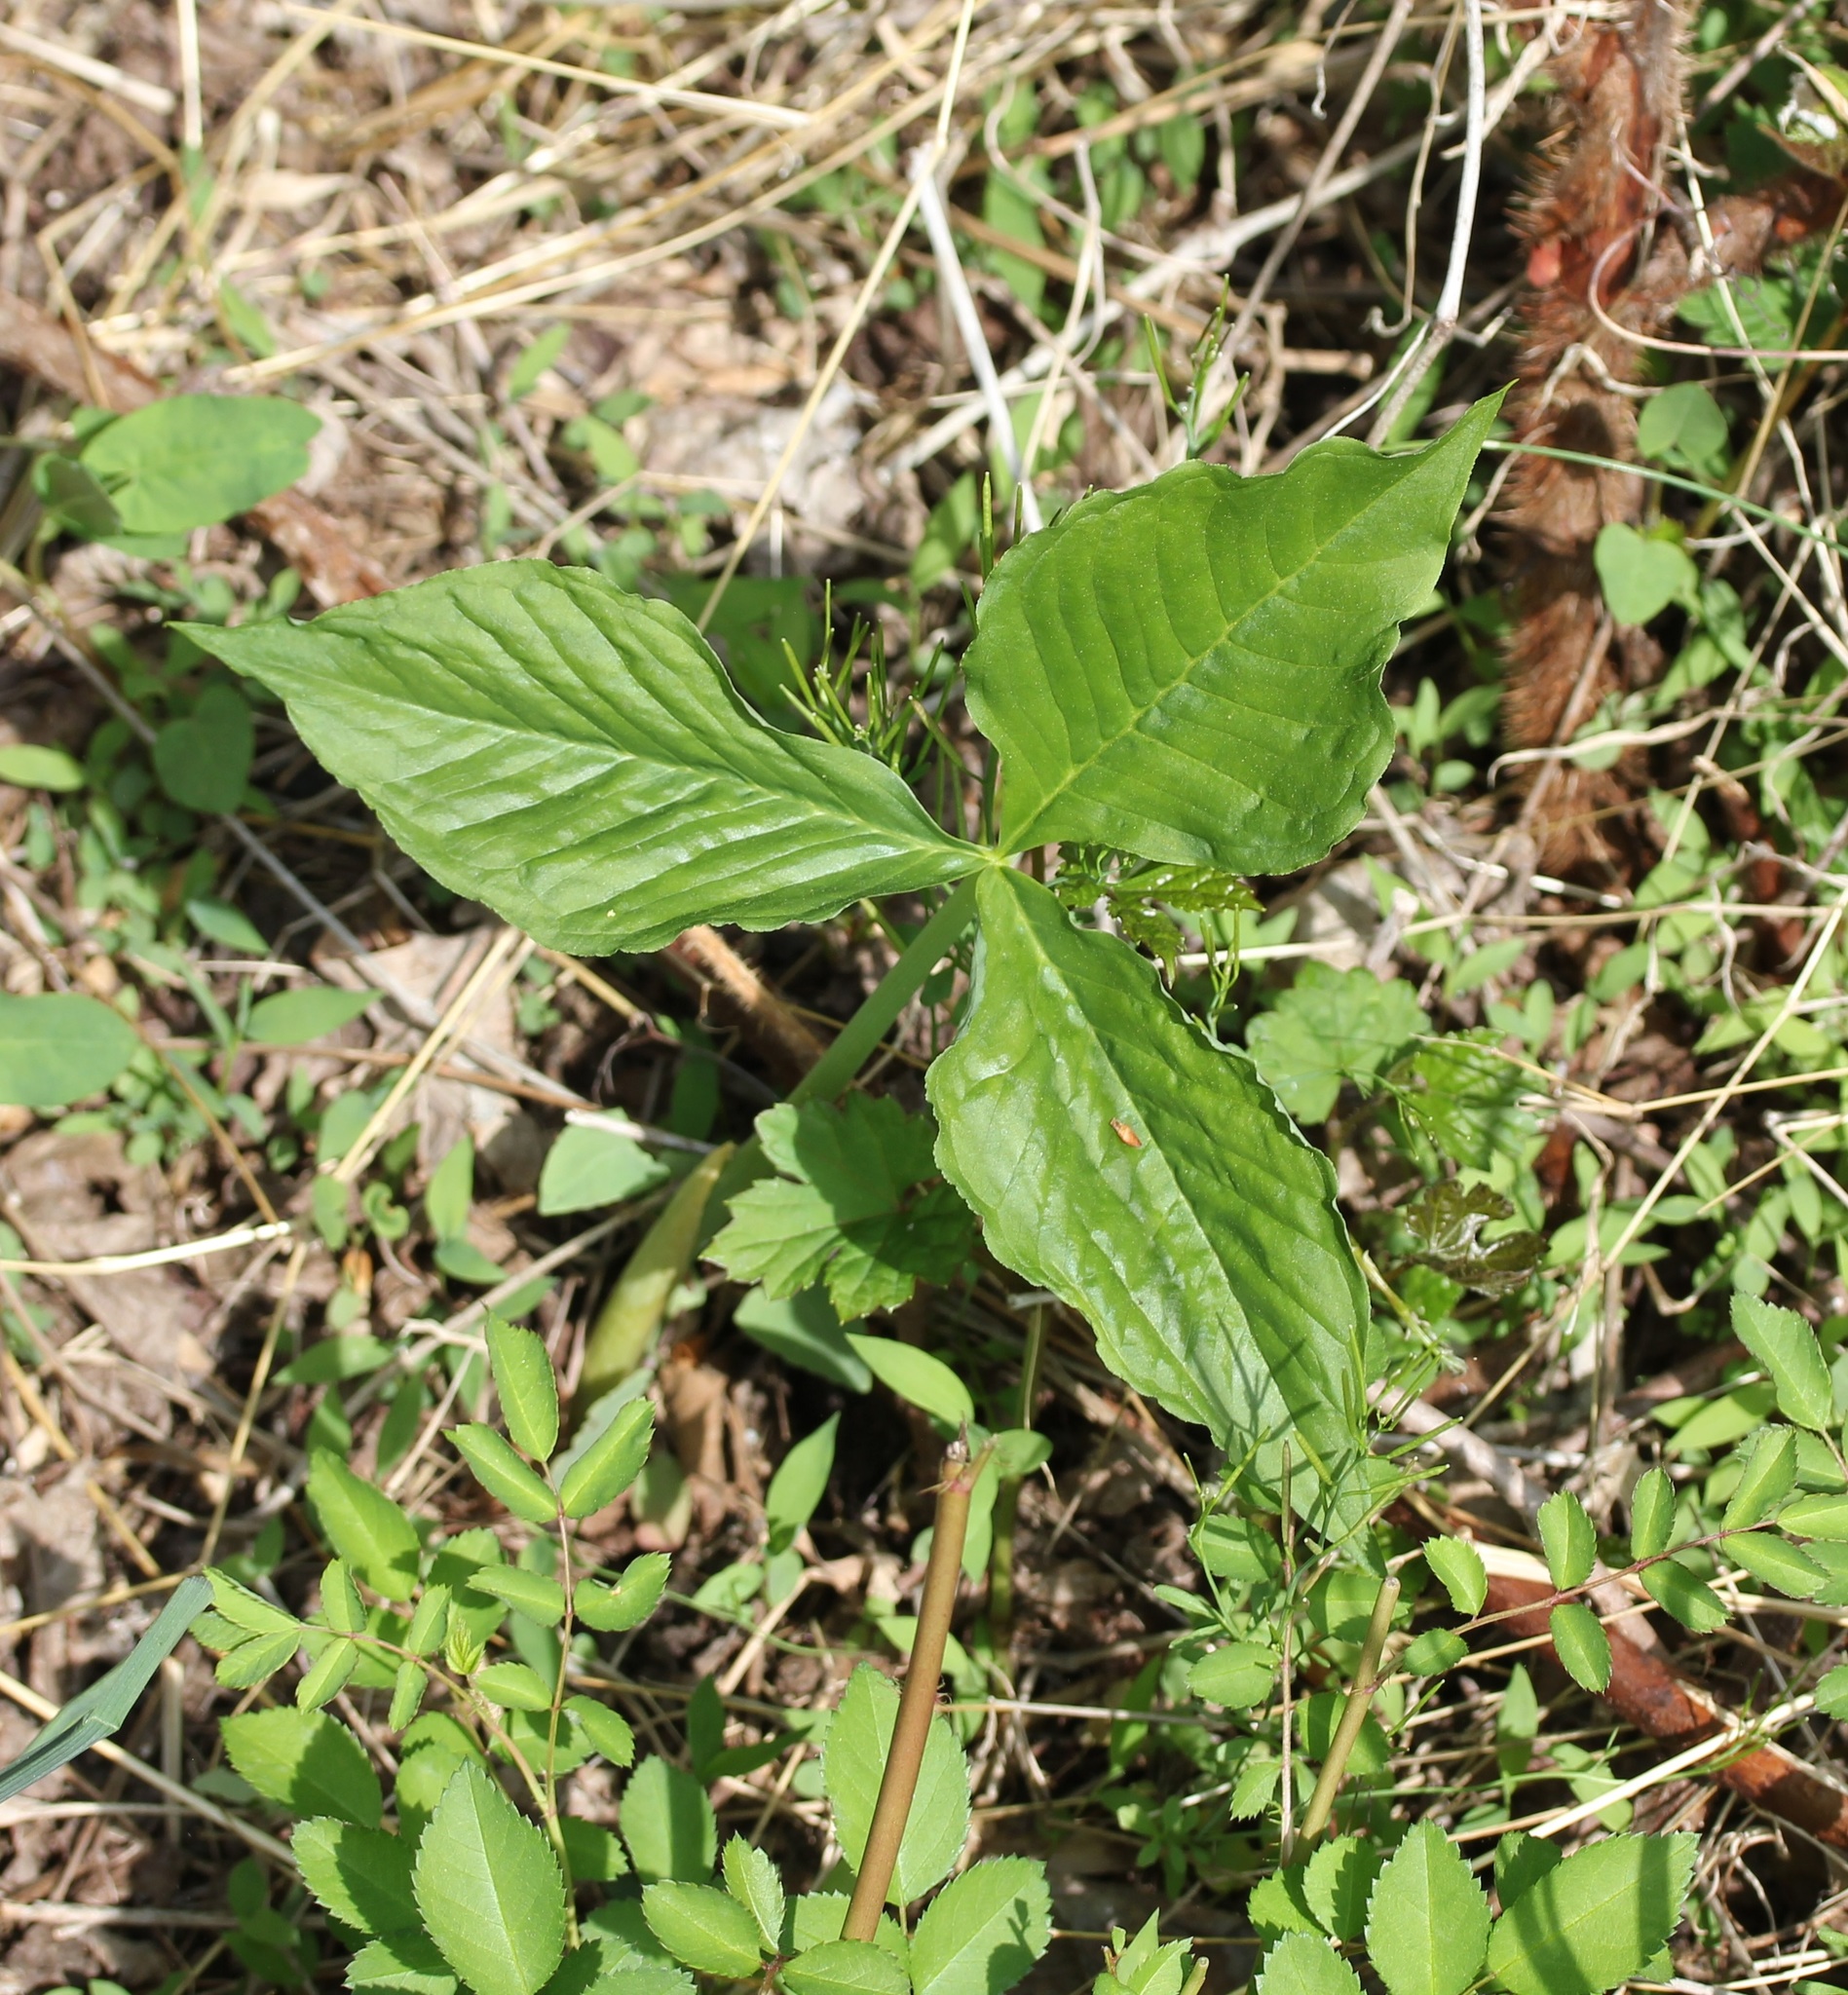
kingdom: Plantae
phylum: Tracheophyta
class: Liliopsida
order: Alismatales
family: Araceae
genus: Arisaema
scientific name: Arisaema triphyllum
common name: Jack-in-the-pulpit
